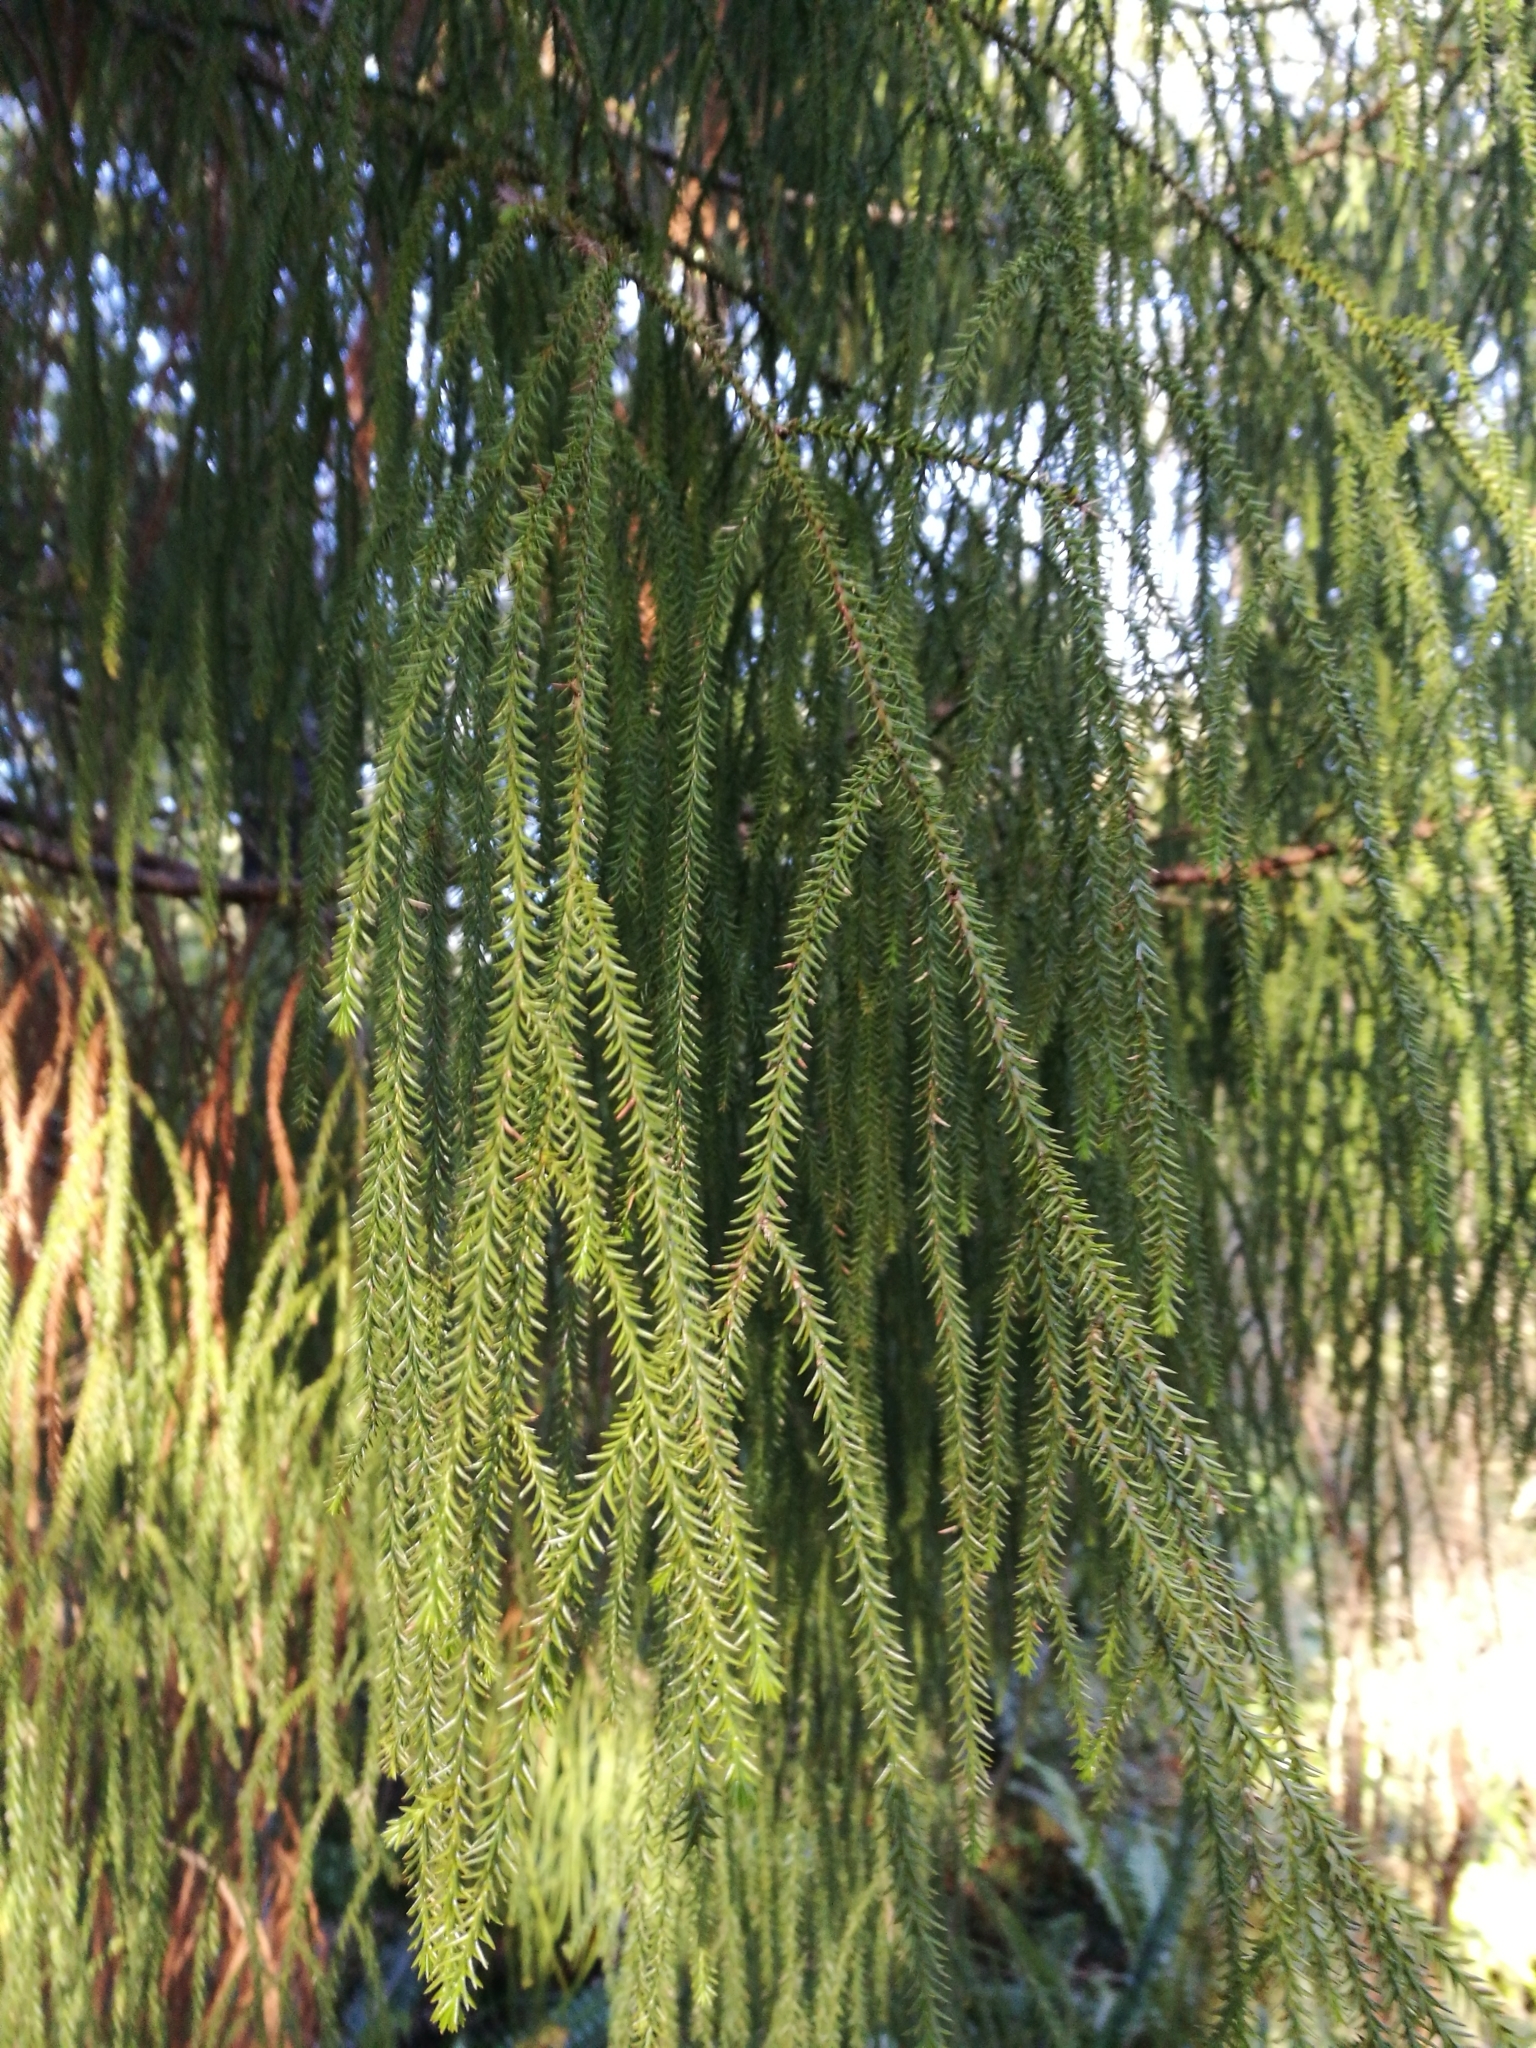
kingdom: Plantae
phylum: Tracheophyta
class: Pinopsida
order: Pinales
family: Podocarpaceae
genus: Dacrydium
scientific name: Dacrydium cupressinum
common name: Red pine
